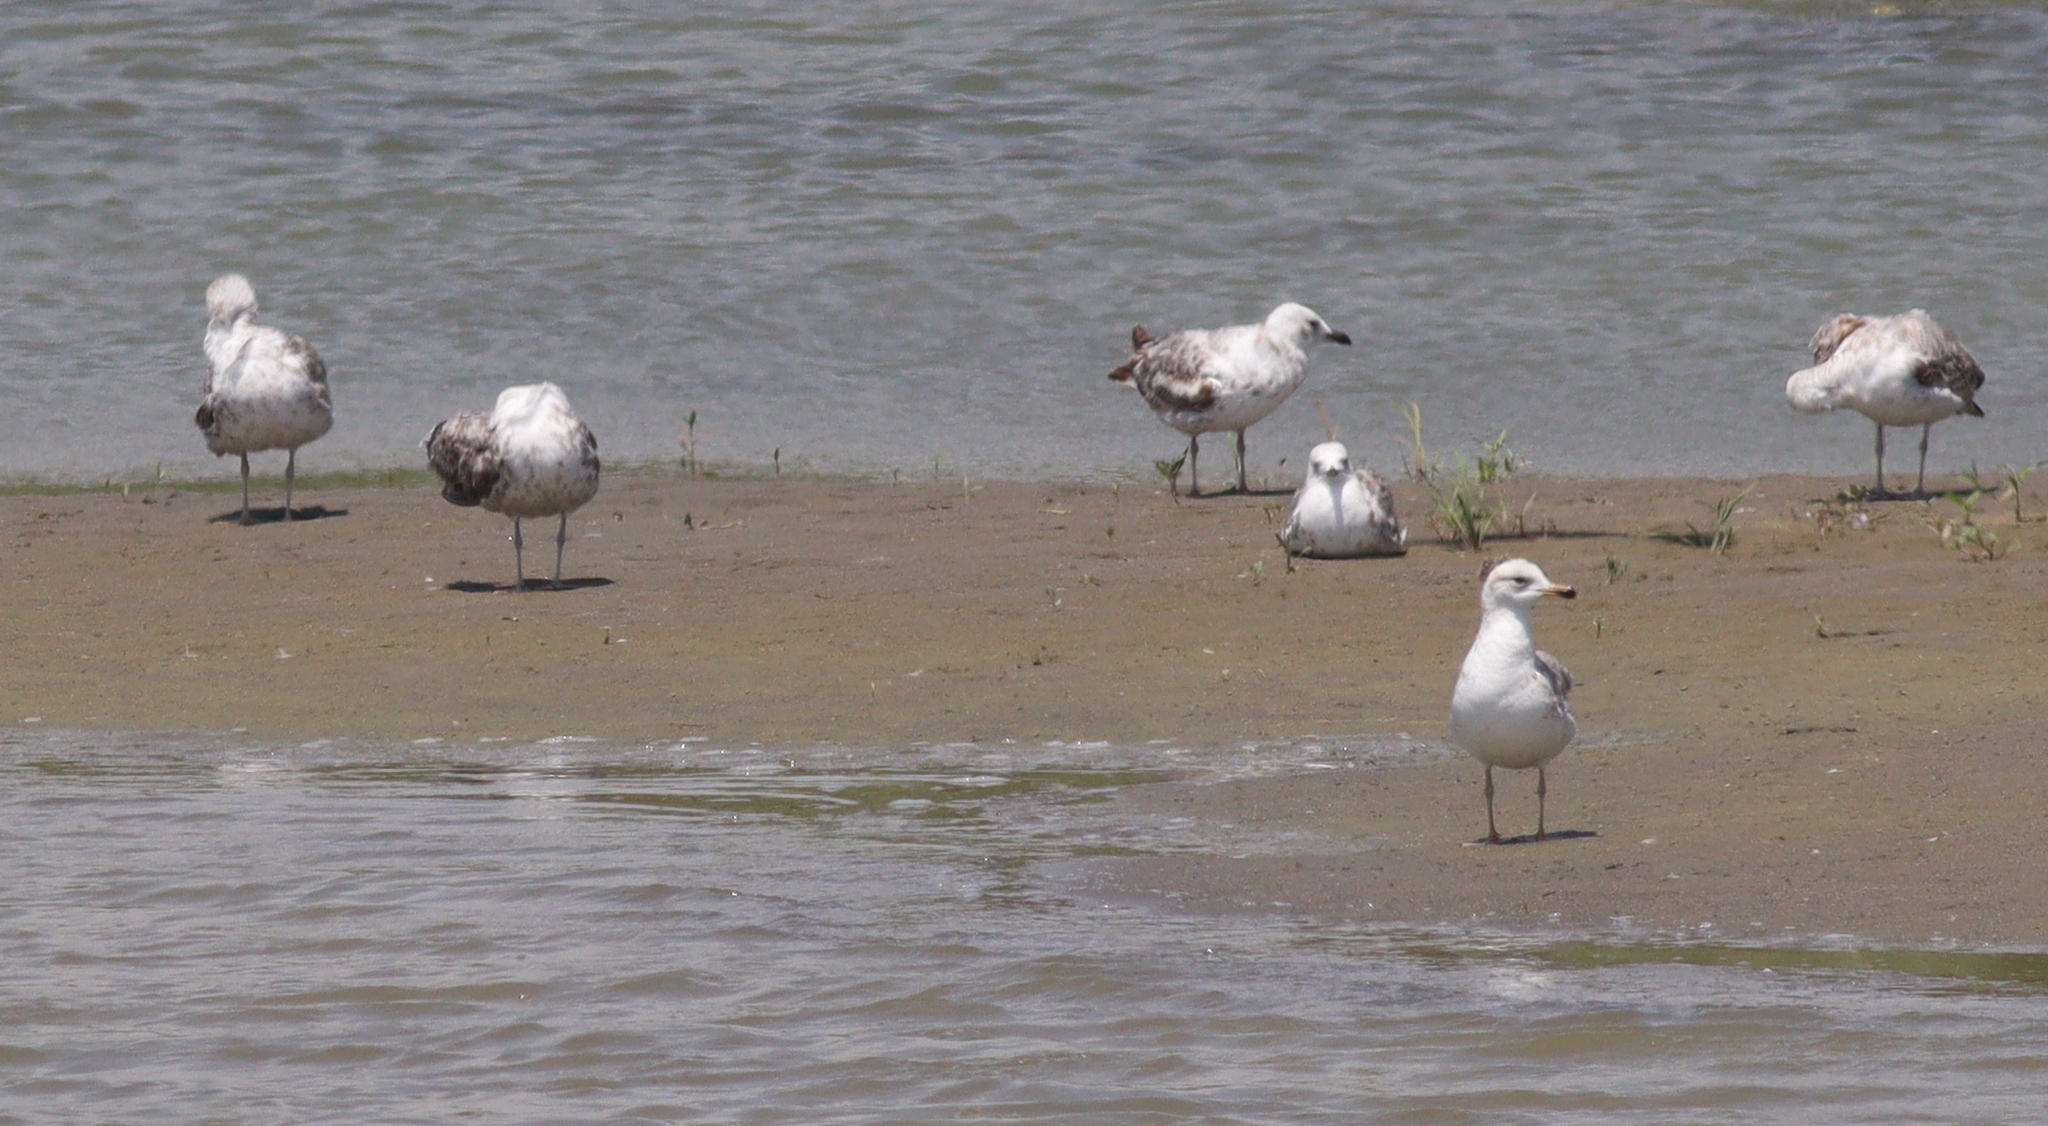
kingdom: Animalia
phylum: Chordata
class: Aves
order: Charadriiformes
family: Laridae
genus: Larus
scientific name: Larus michahellis
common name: Yellow-legged gull
